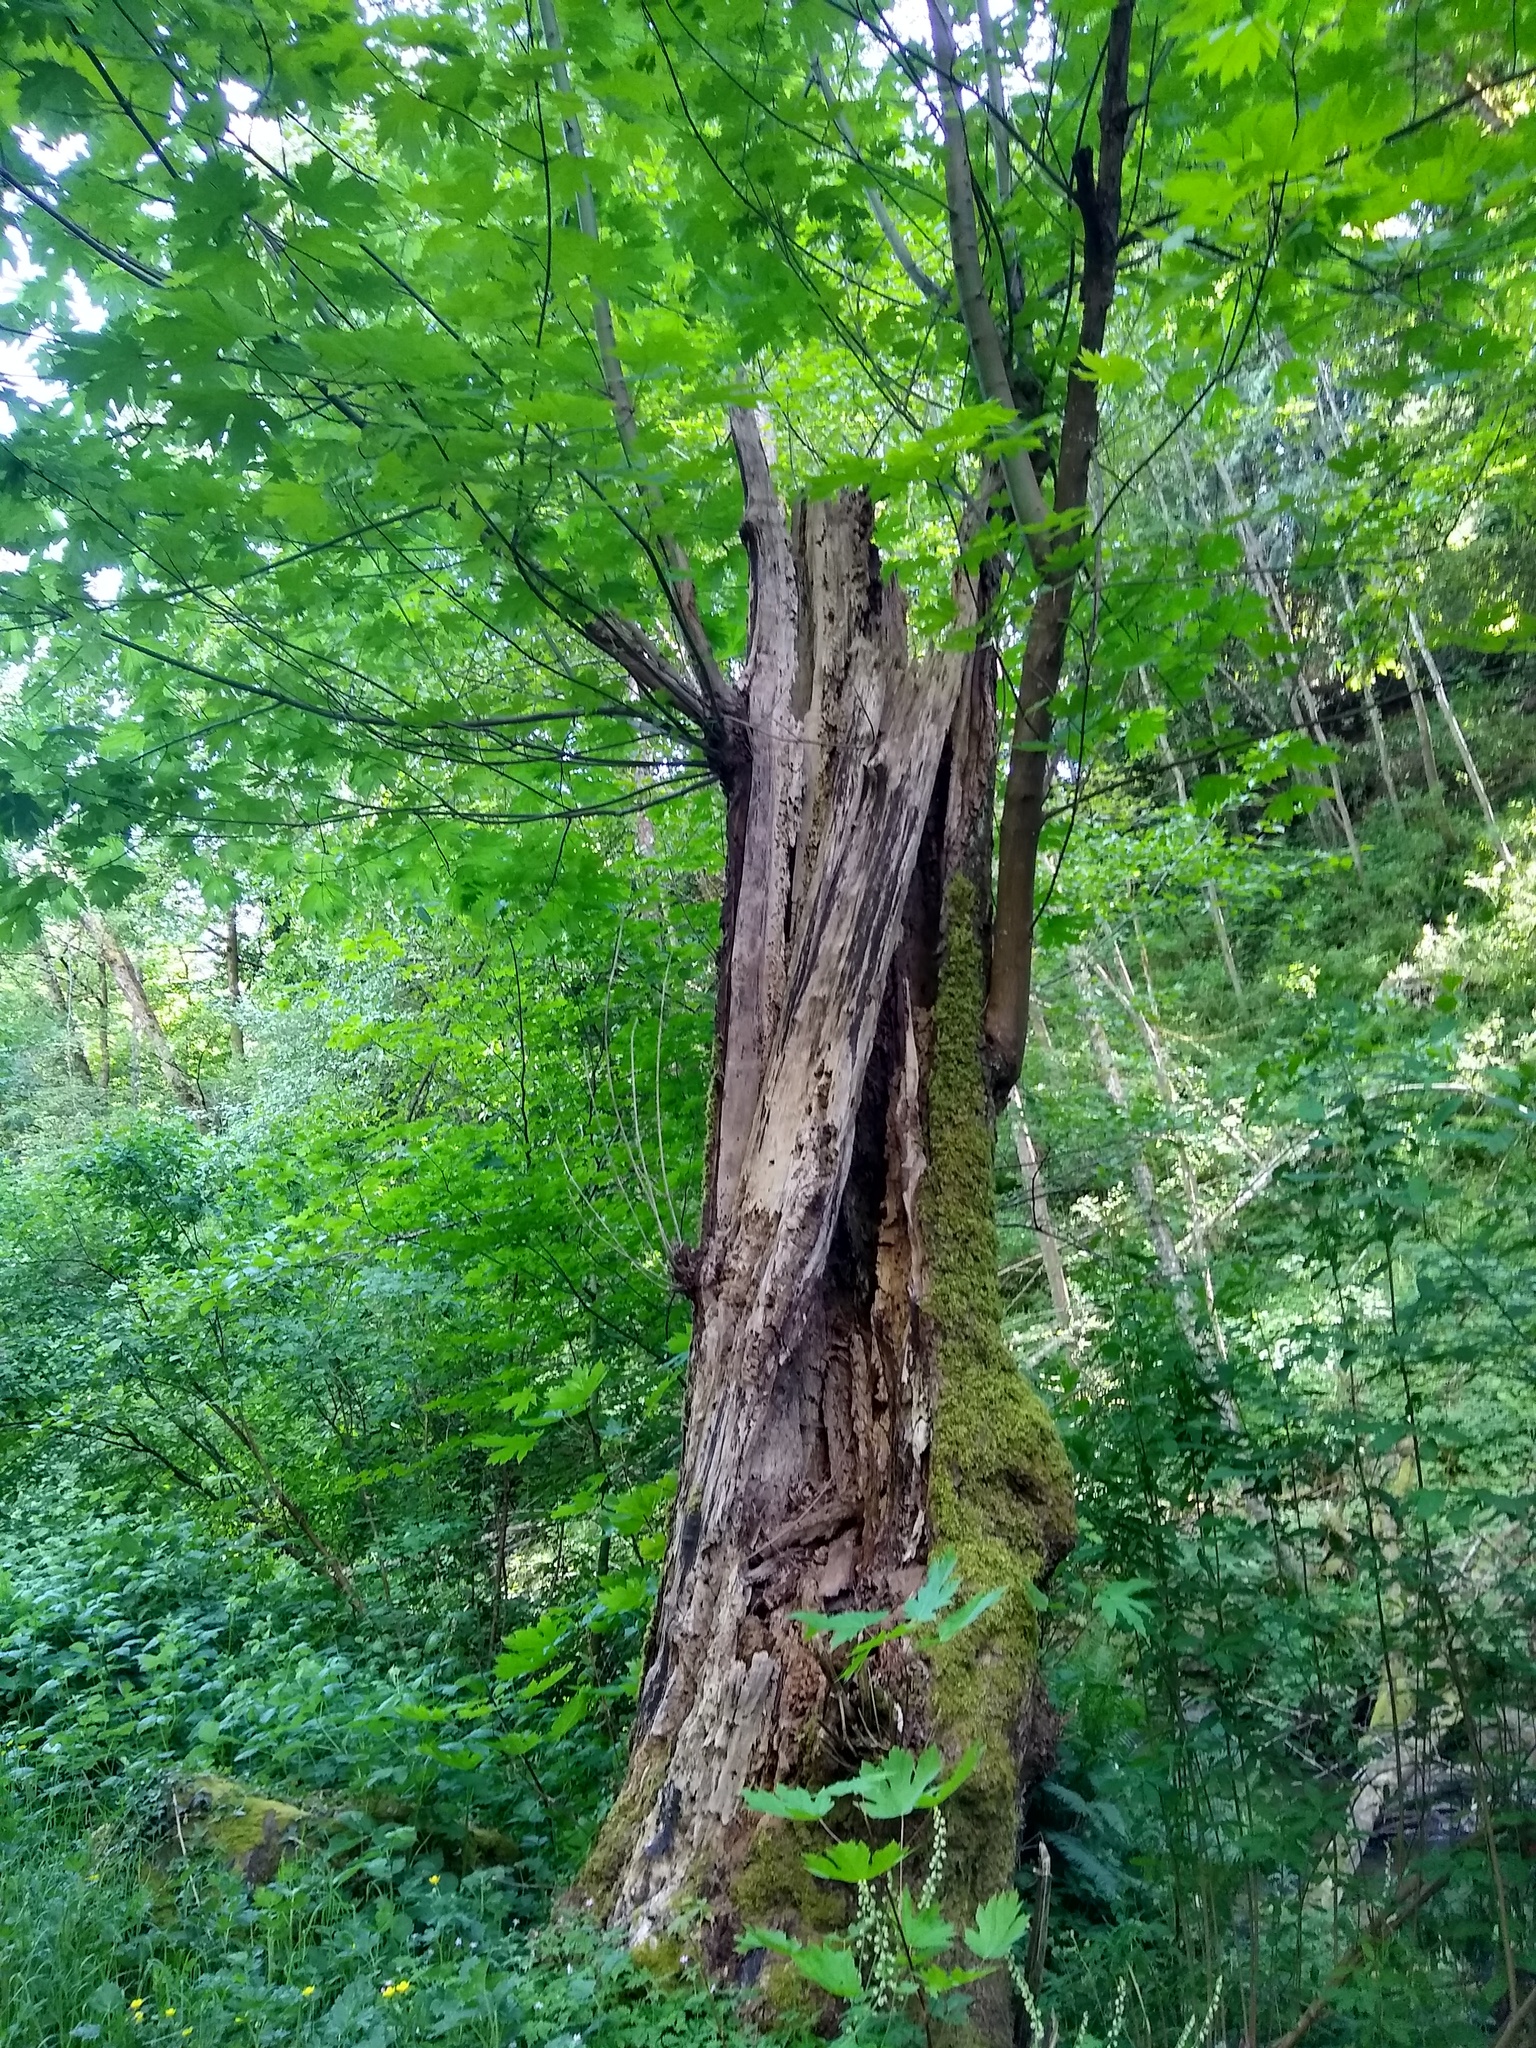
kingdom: Plantae
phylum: Tracheophyta
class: Magnoliopsida
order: Sapindales
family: Sapindaceae
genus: Acer
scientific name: Acer macrophyllum
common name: Oregon maple
